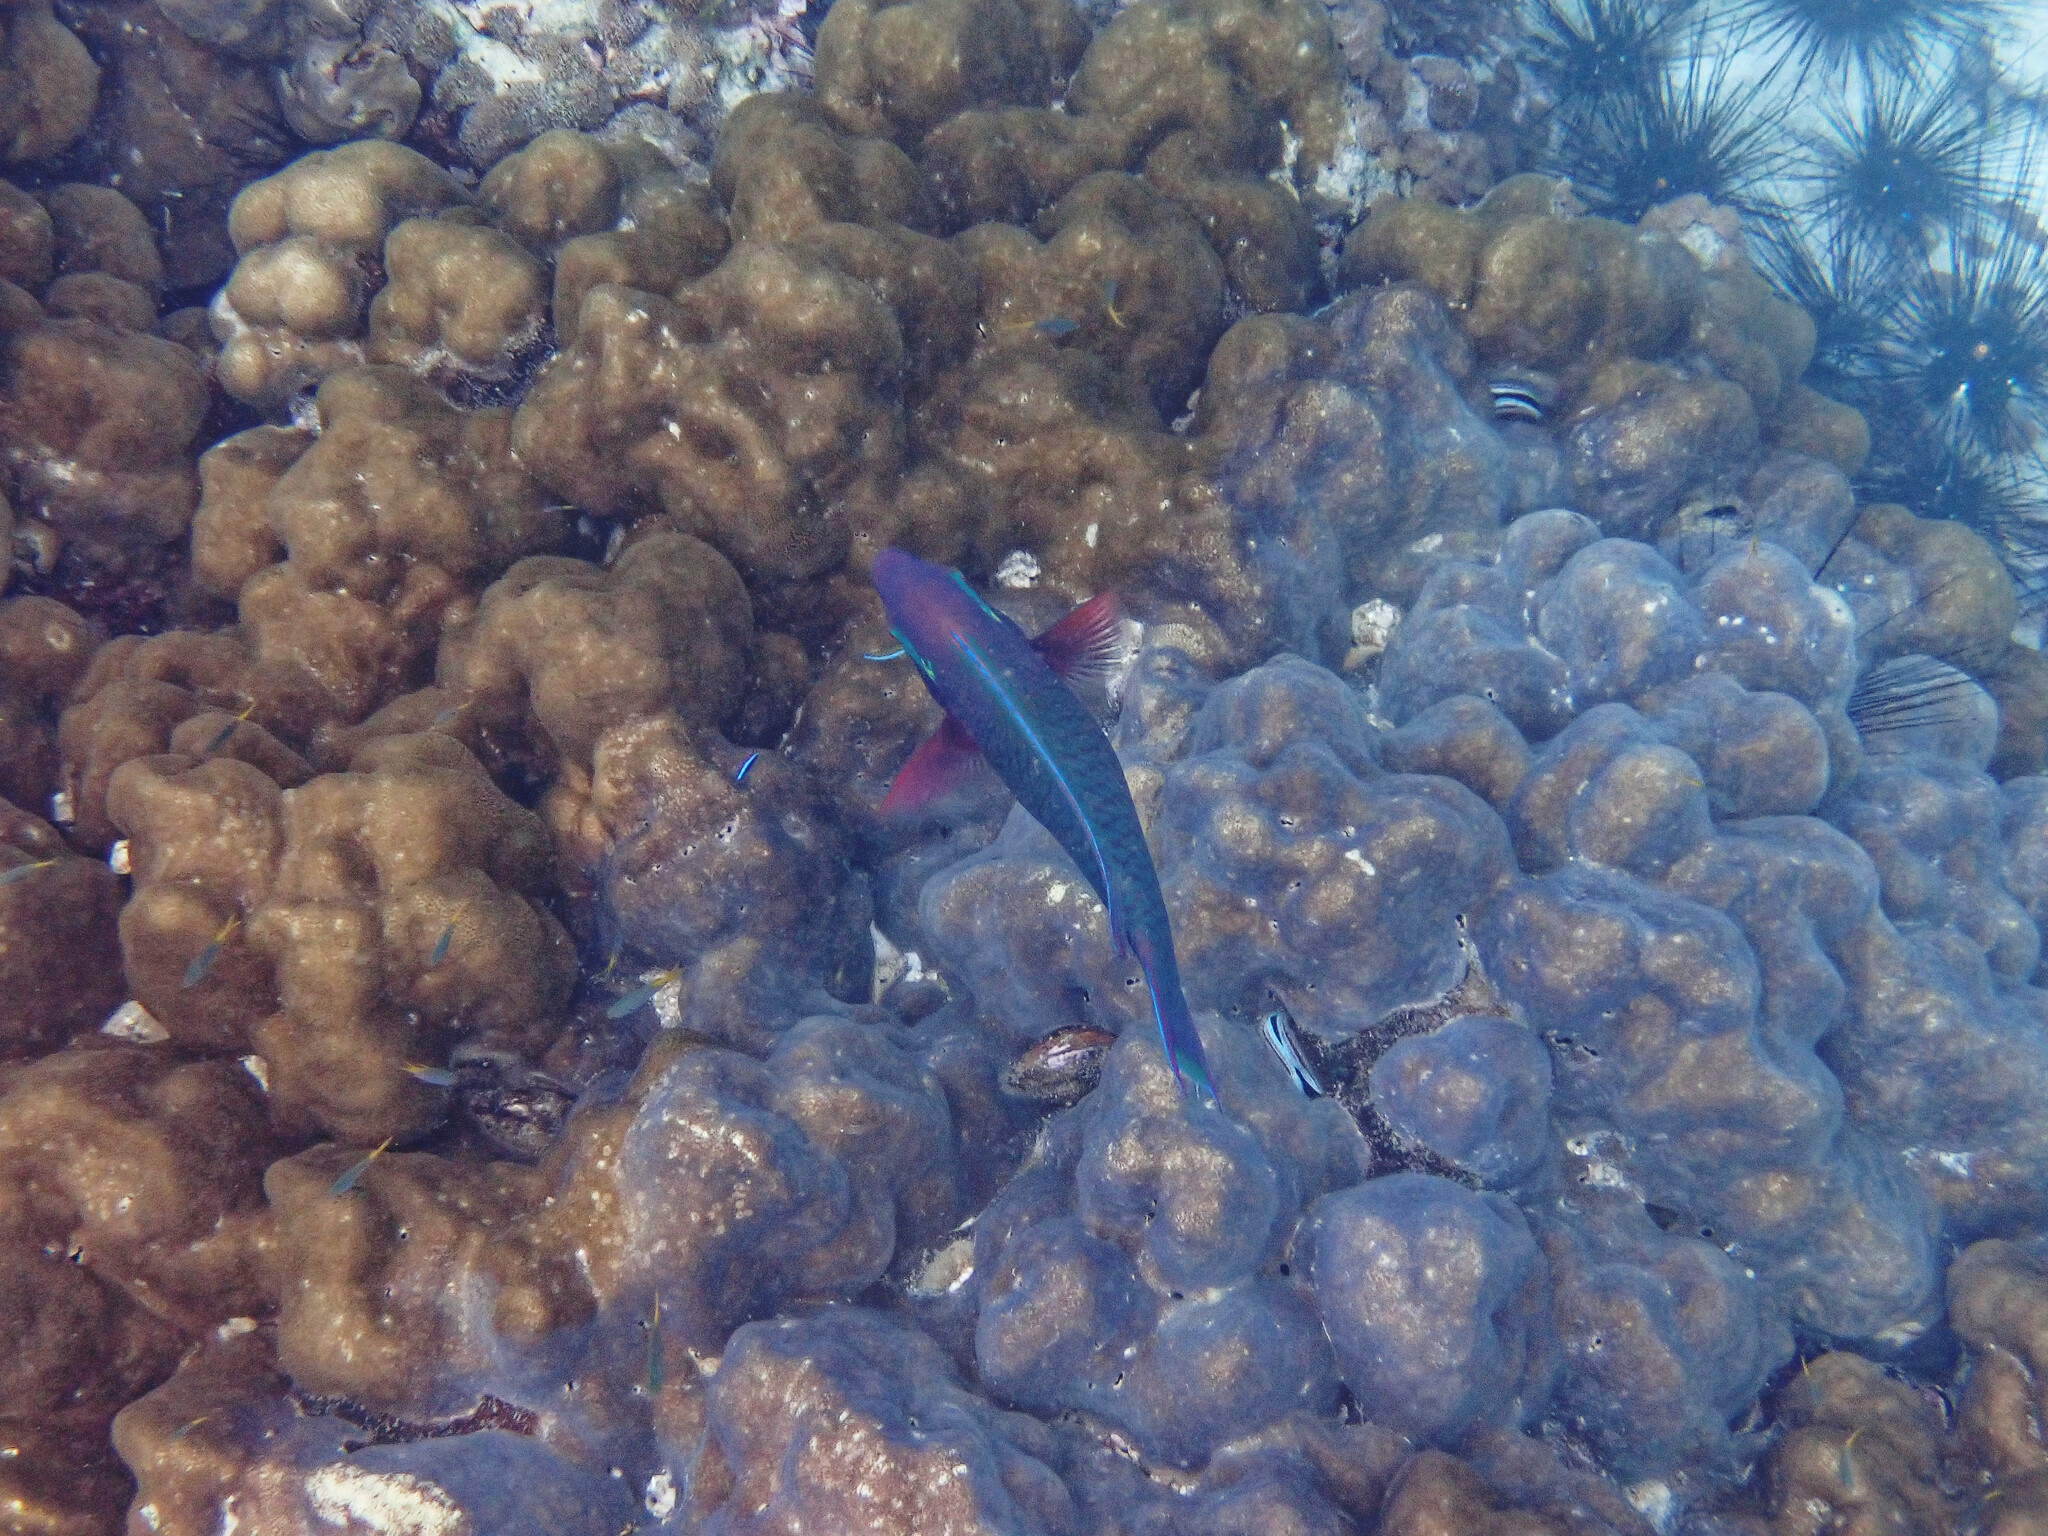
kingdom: Animalia
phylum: Chordata
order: Perciformes
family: Scaridae
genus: Scarus
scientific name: Scarus niger
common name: Dusky parrotfish
